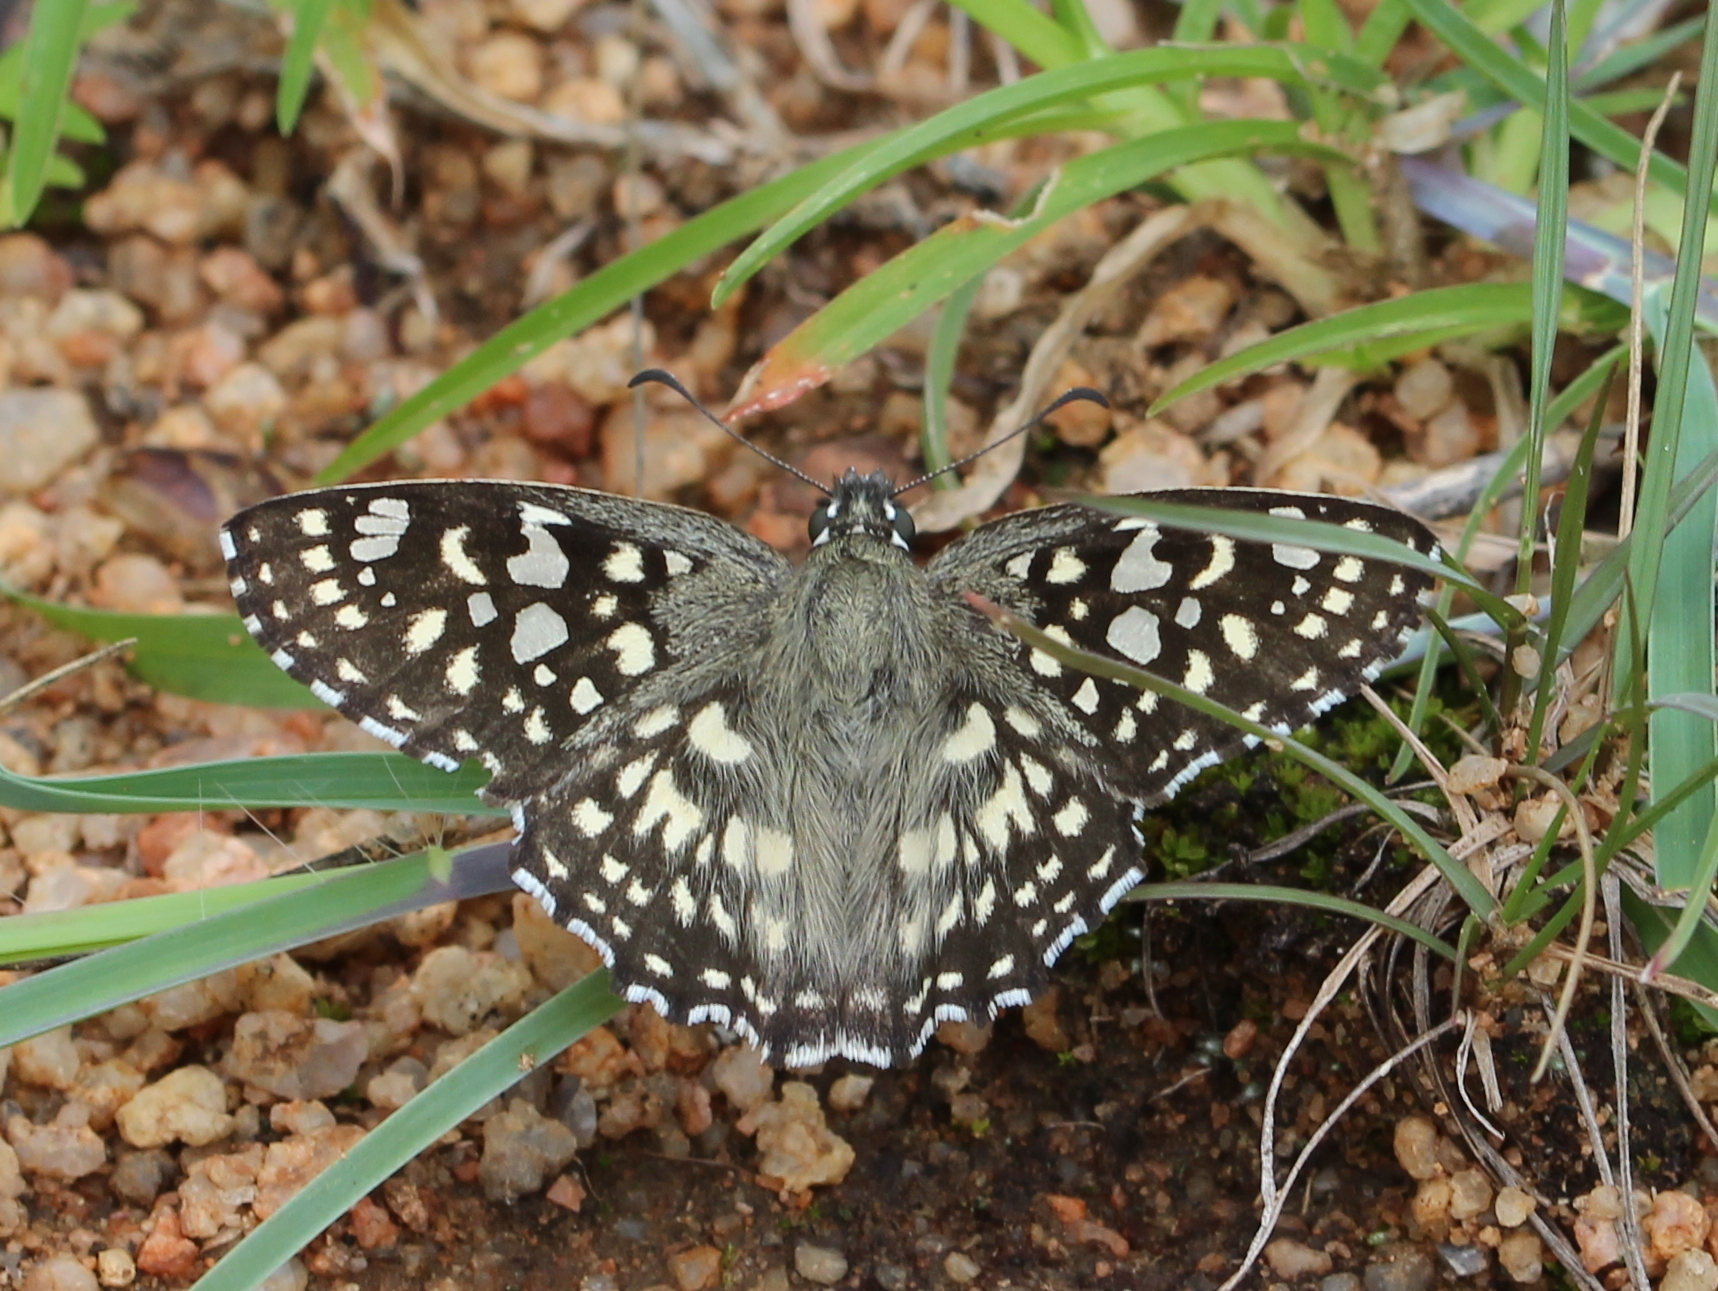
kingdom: Animalia
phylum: Arthropoda
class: Insecta
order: Lepidoptera
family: Hesperiidae
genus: Caprona
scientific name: Caprona agama
